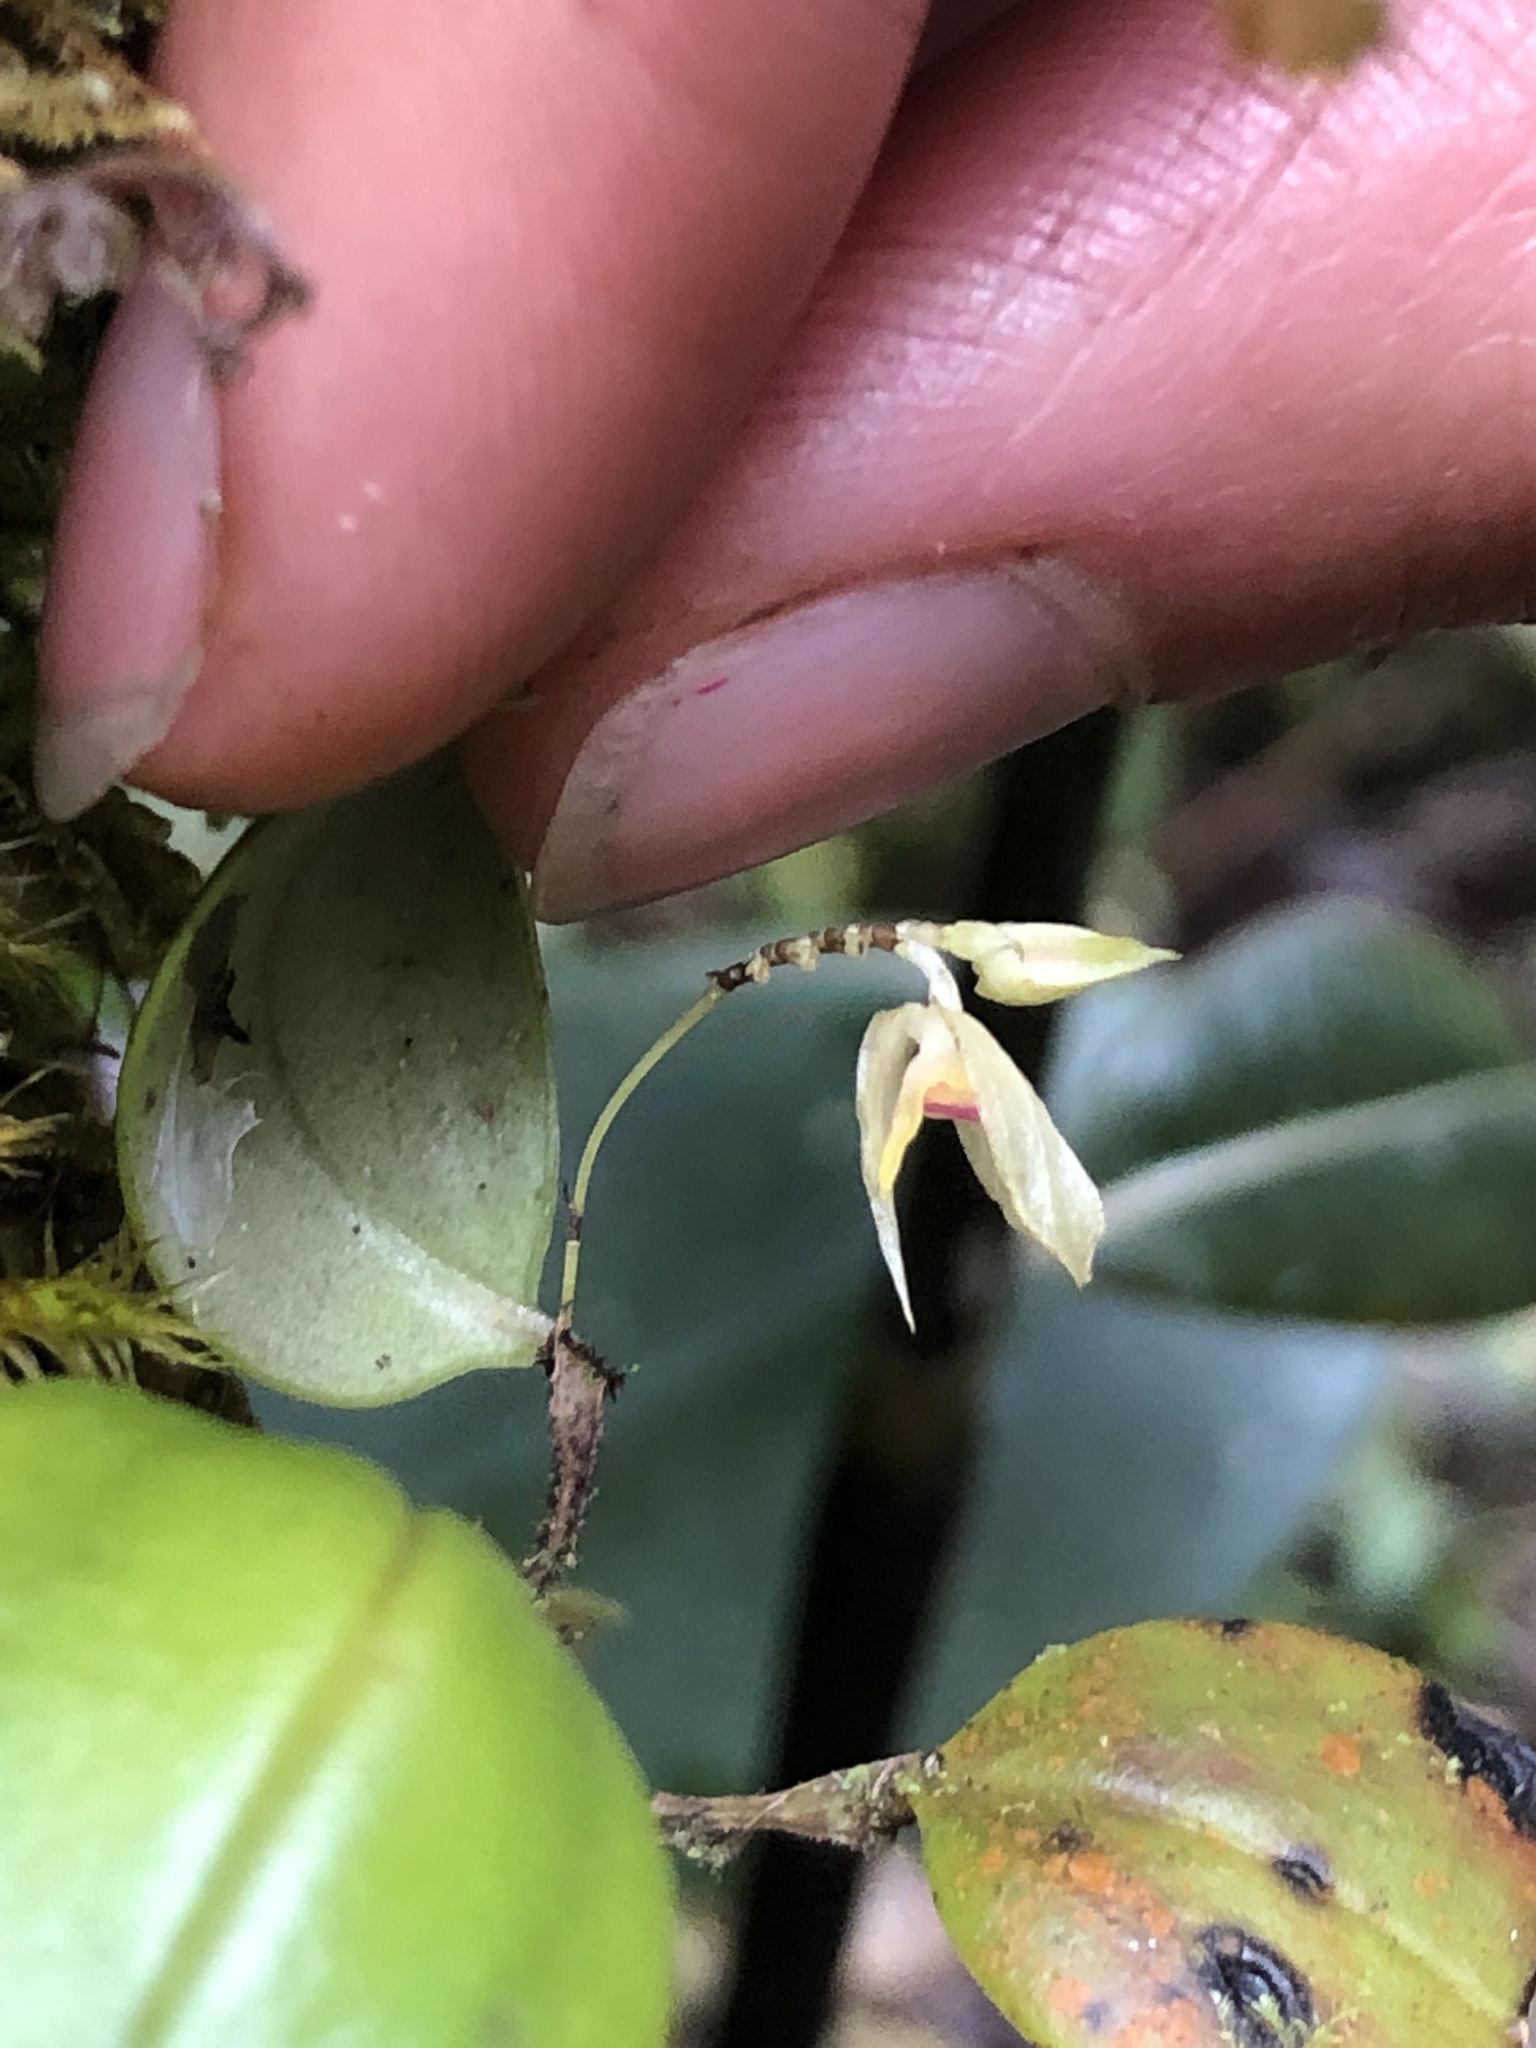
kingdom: Plantae
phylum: Tracheophyta
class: Liliopsida
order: Asparagales
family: Orchidaceae
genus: Lepanthes
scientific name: Lepanthes dunstervilleorum
